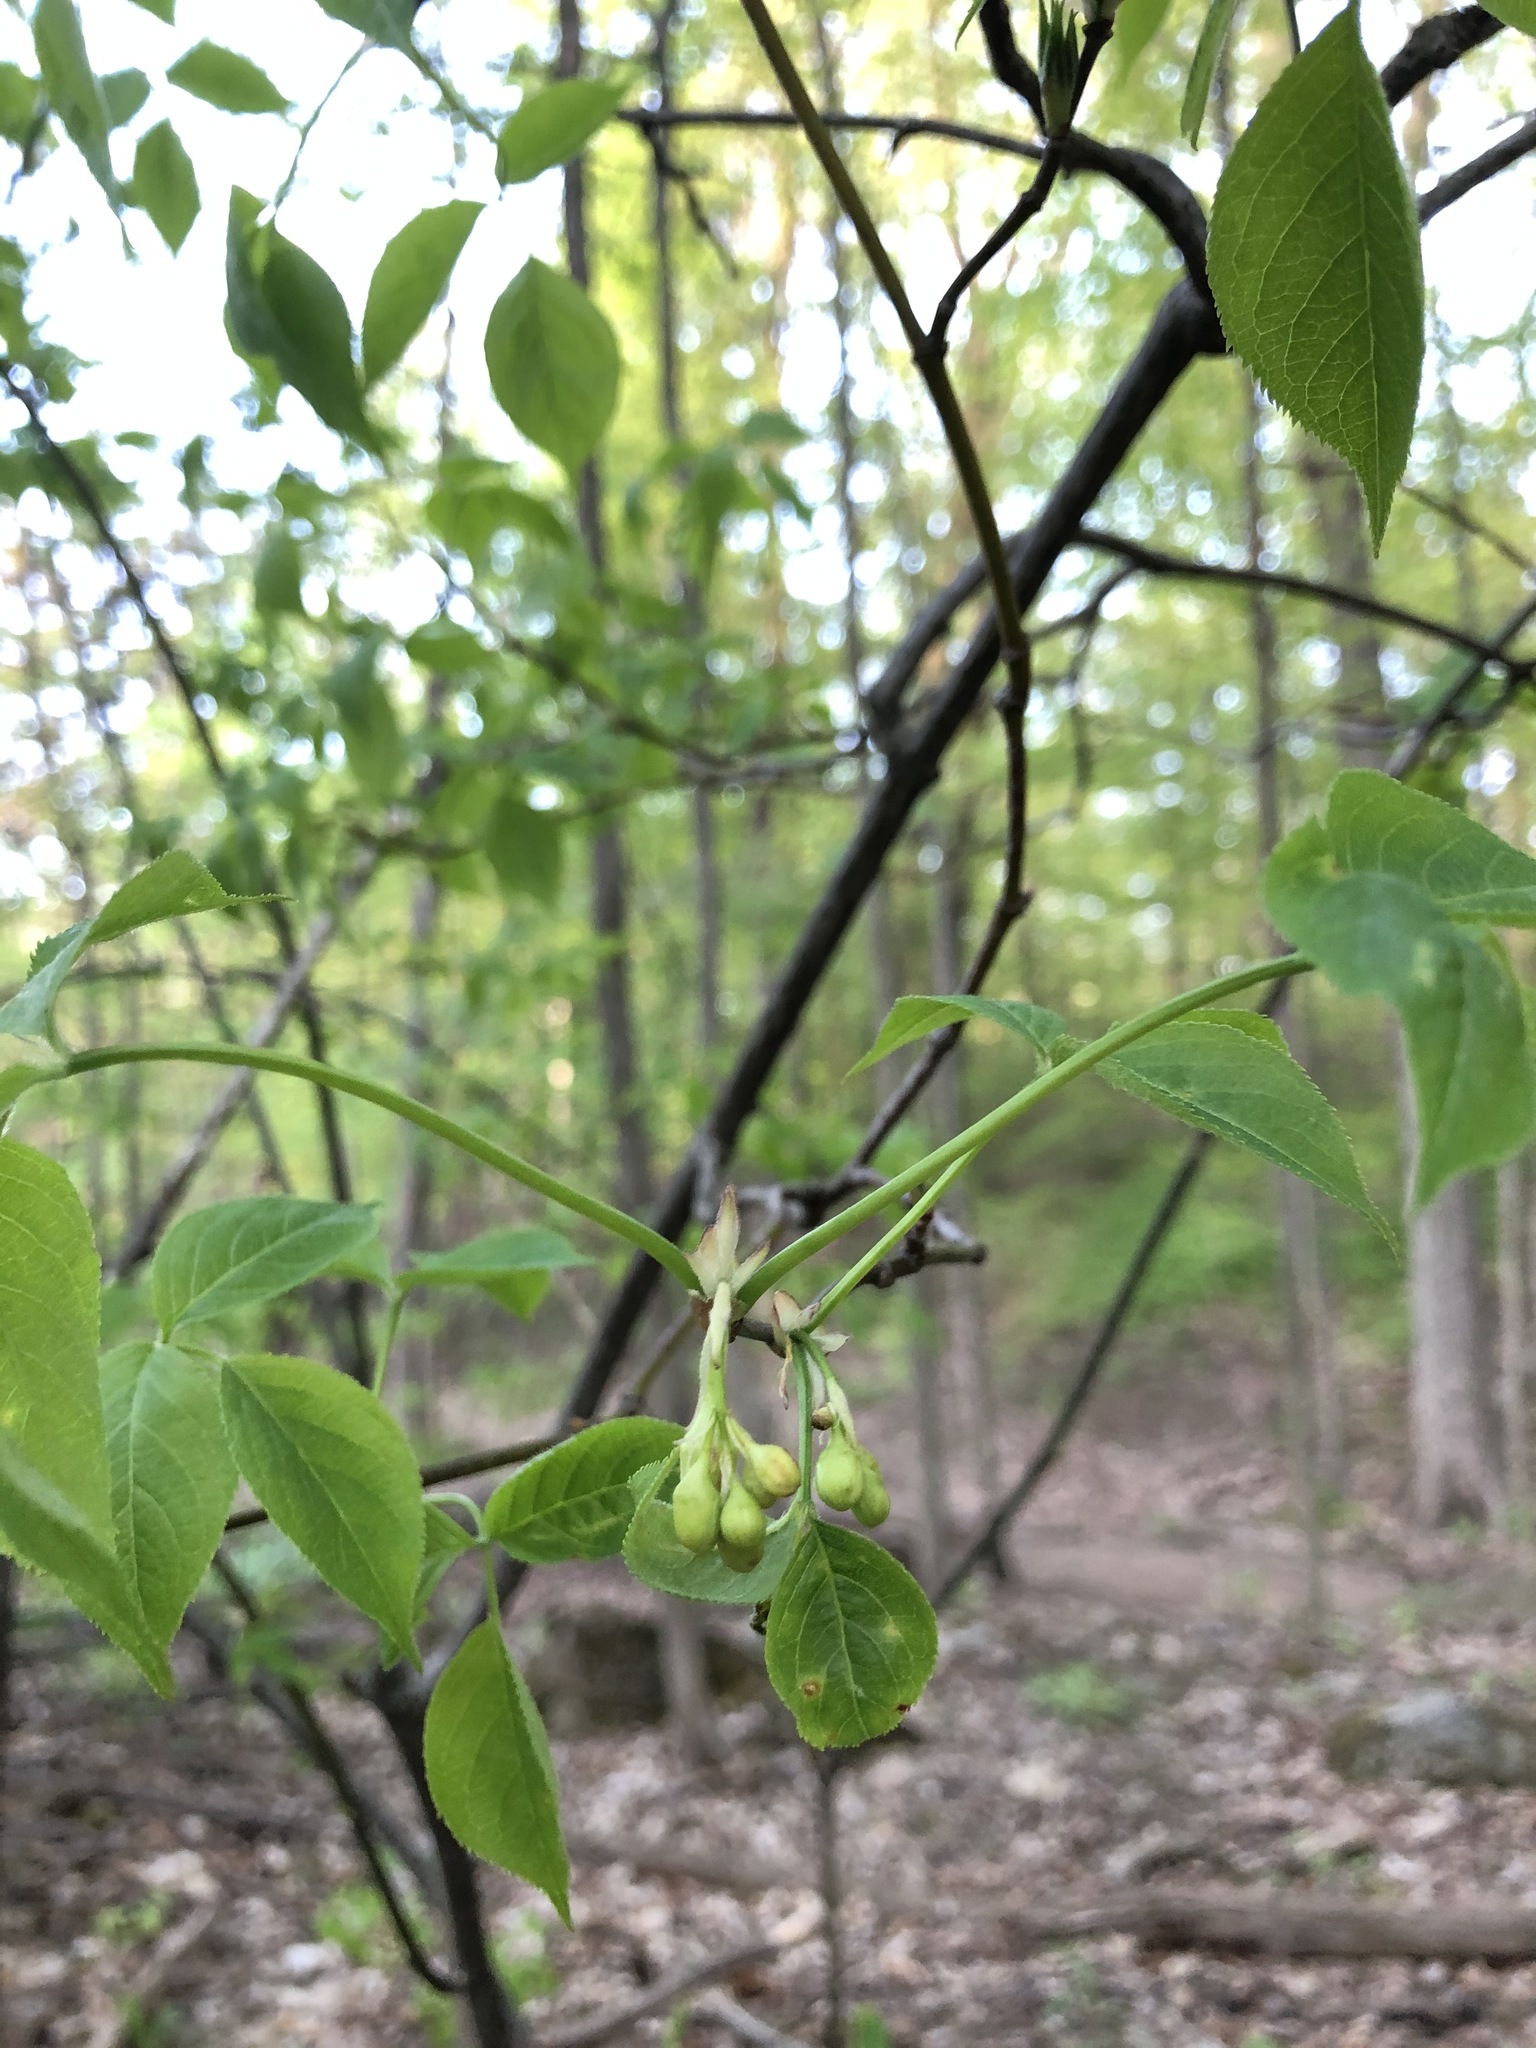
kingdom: Plantae
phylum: Tracheophyta
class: Magnoliopsida
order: Crossosomatales
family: Staphyleaceae
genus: Staphylea
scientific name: Staphylea trifolia
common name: American bladdernut
